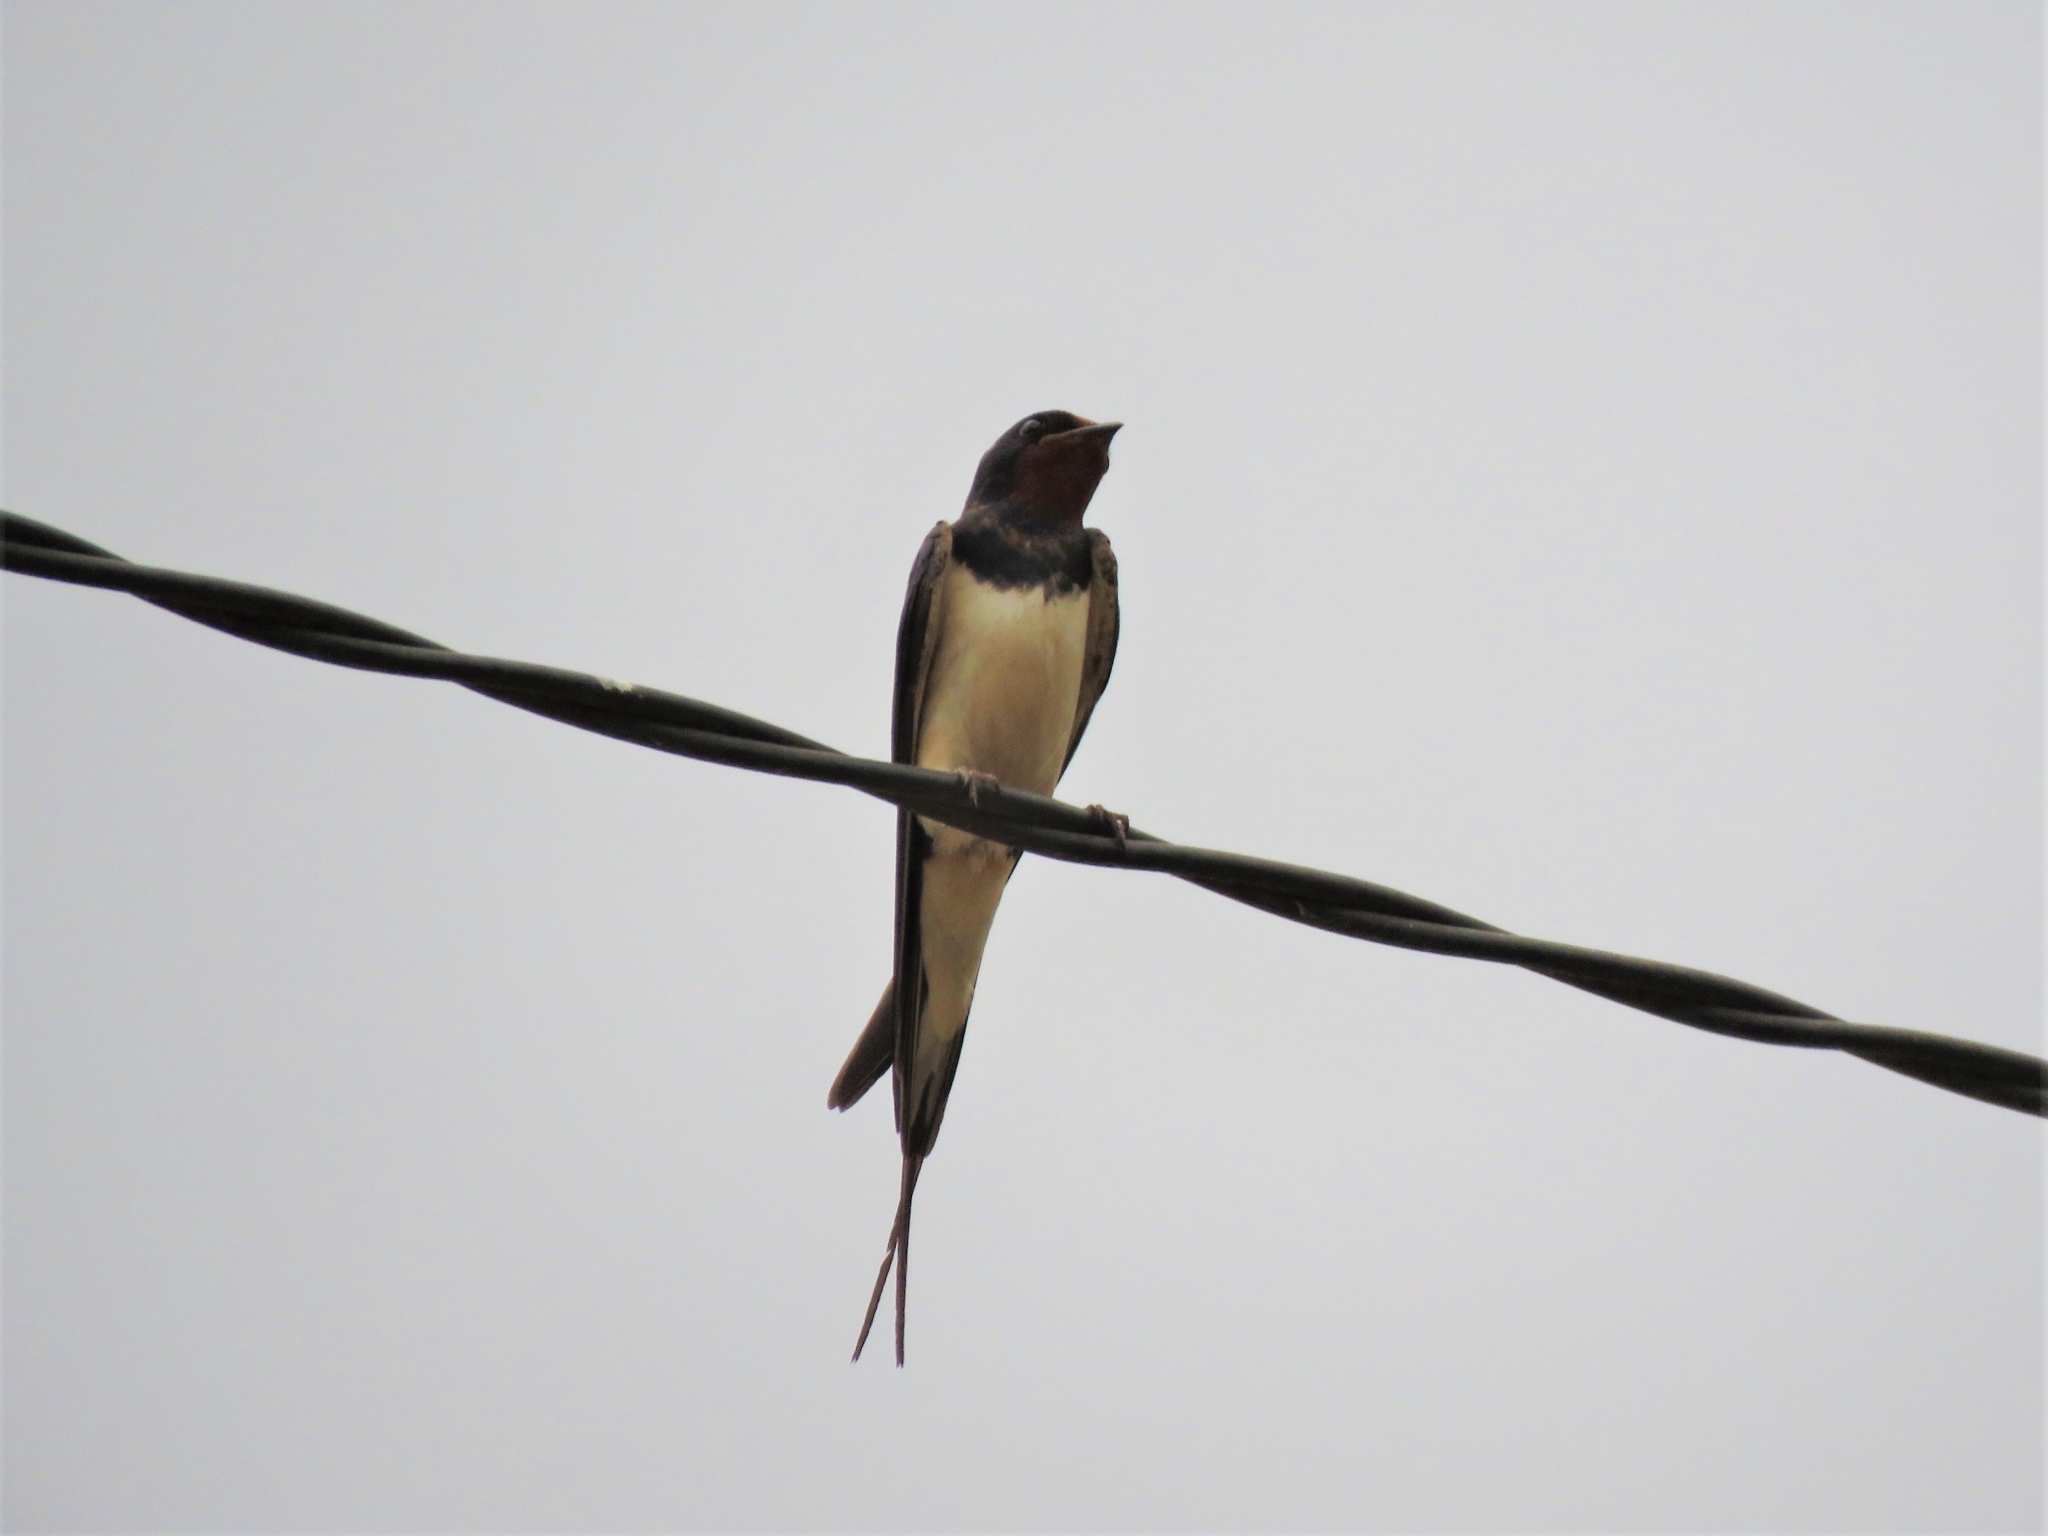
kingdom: Animalia
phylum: Chordata
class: Aves
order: Passeriformes
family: Hirundinidae
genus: Hirundo
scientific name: Hirundo rustica
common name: Barn swallow
